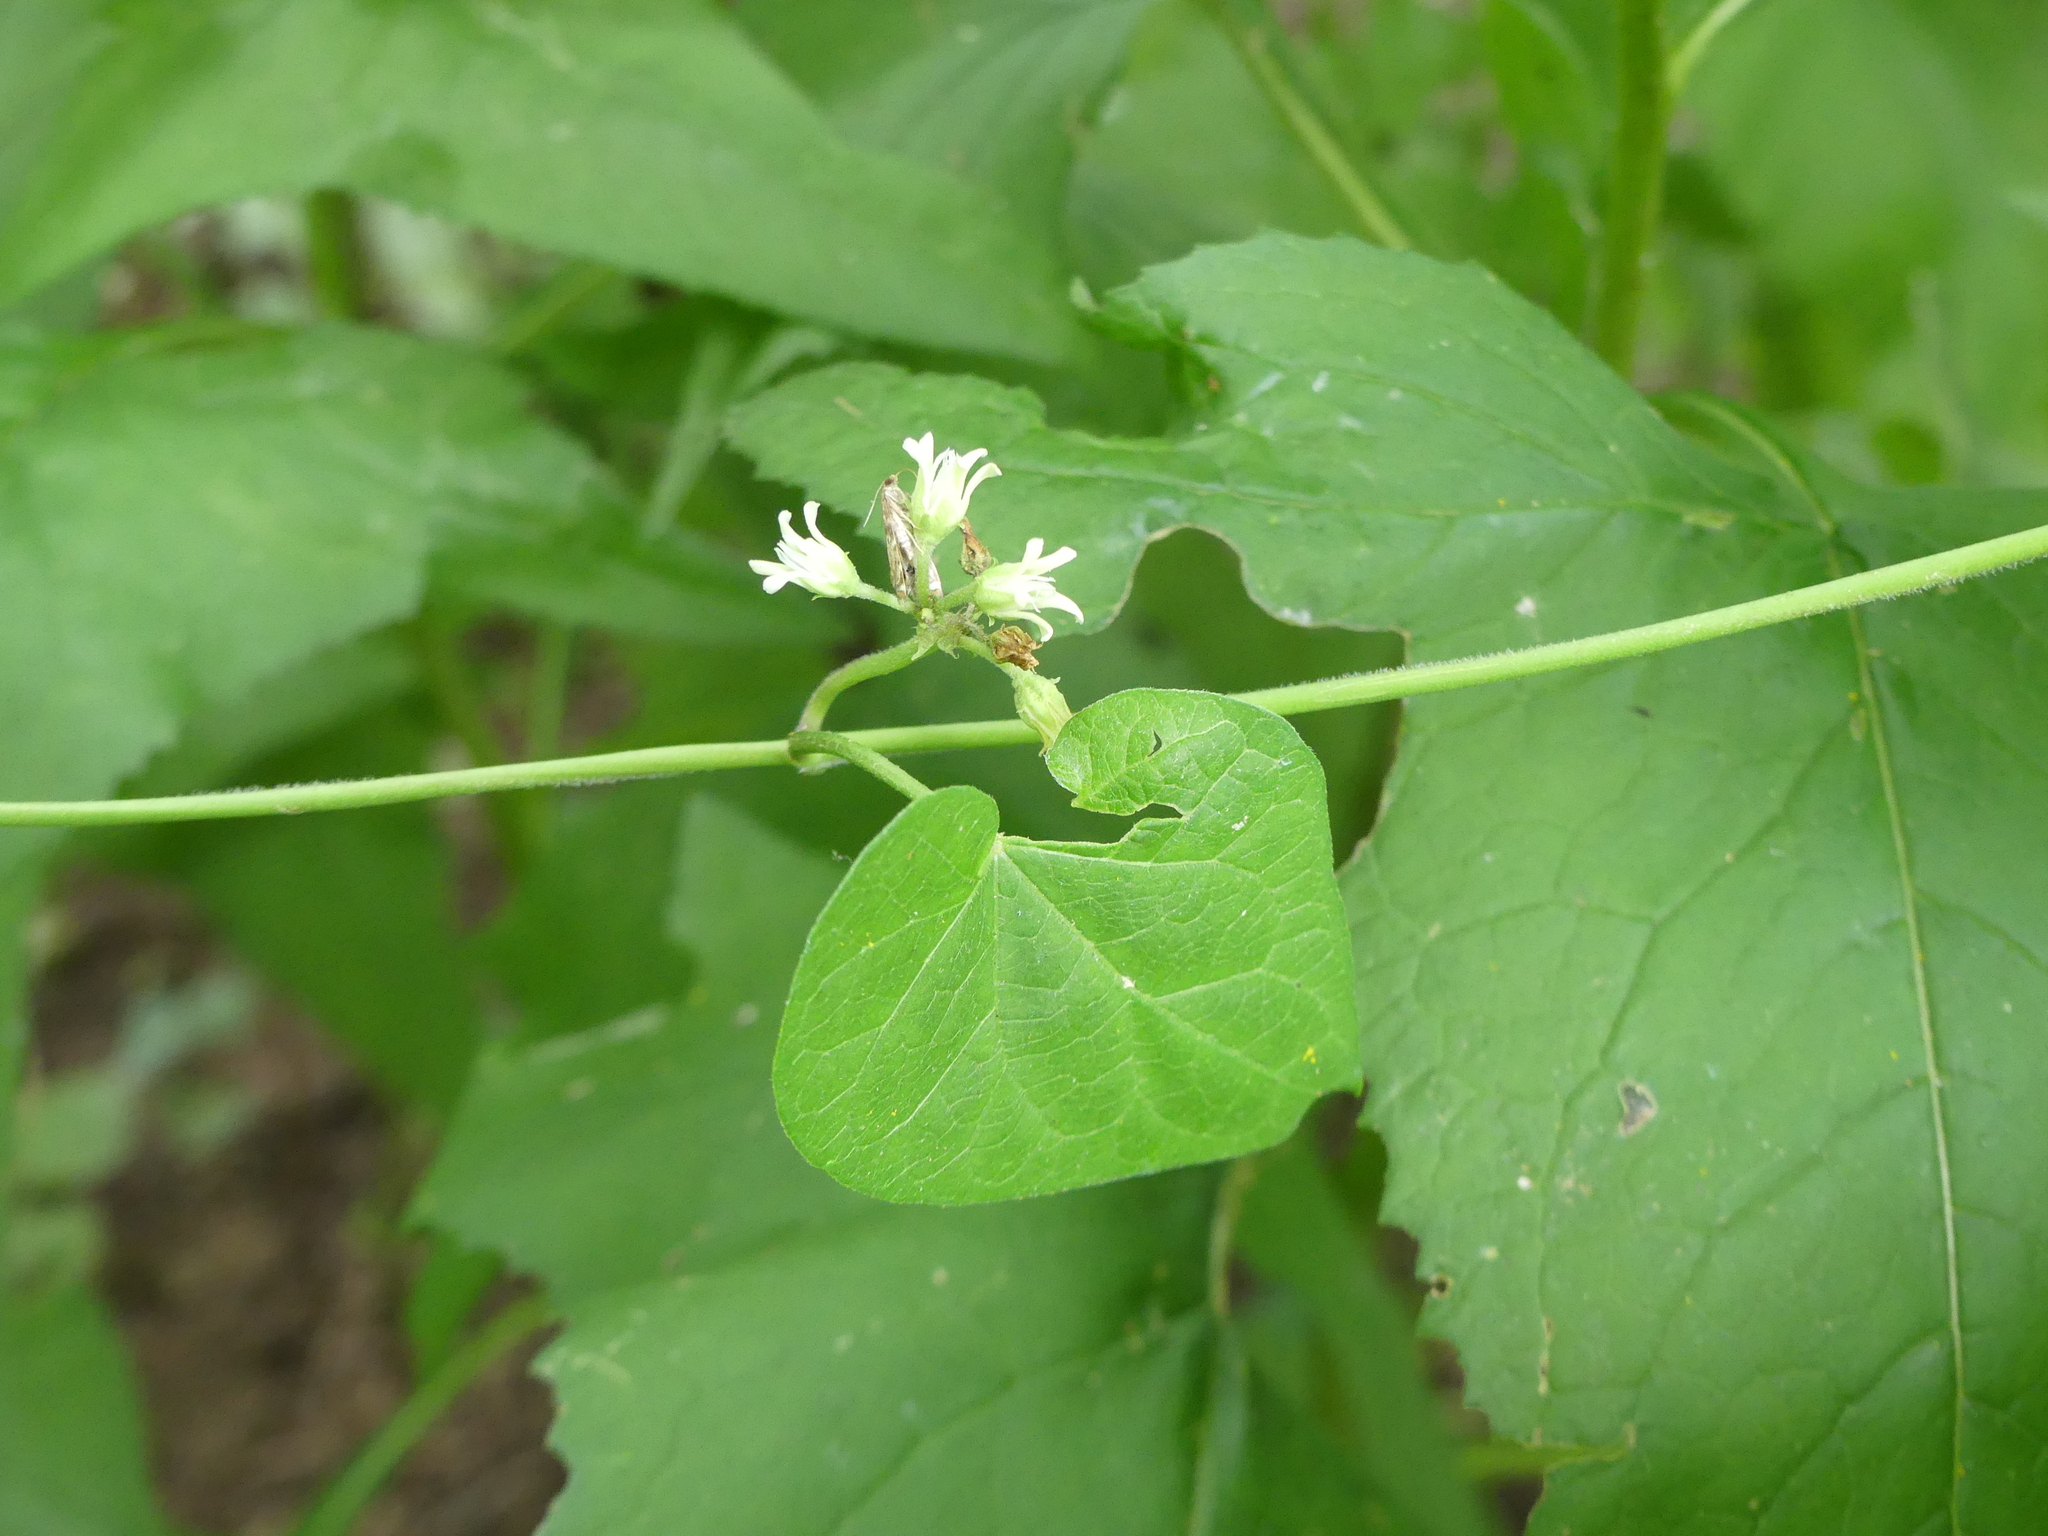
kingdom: Plantae
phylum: Tracheophyta
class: Magnoliopsida
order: Gentianales
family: Apocynaceae
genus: Cynanchum
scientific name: Cynanchum laeve
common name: Sandvine
